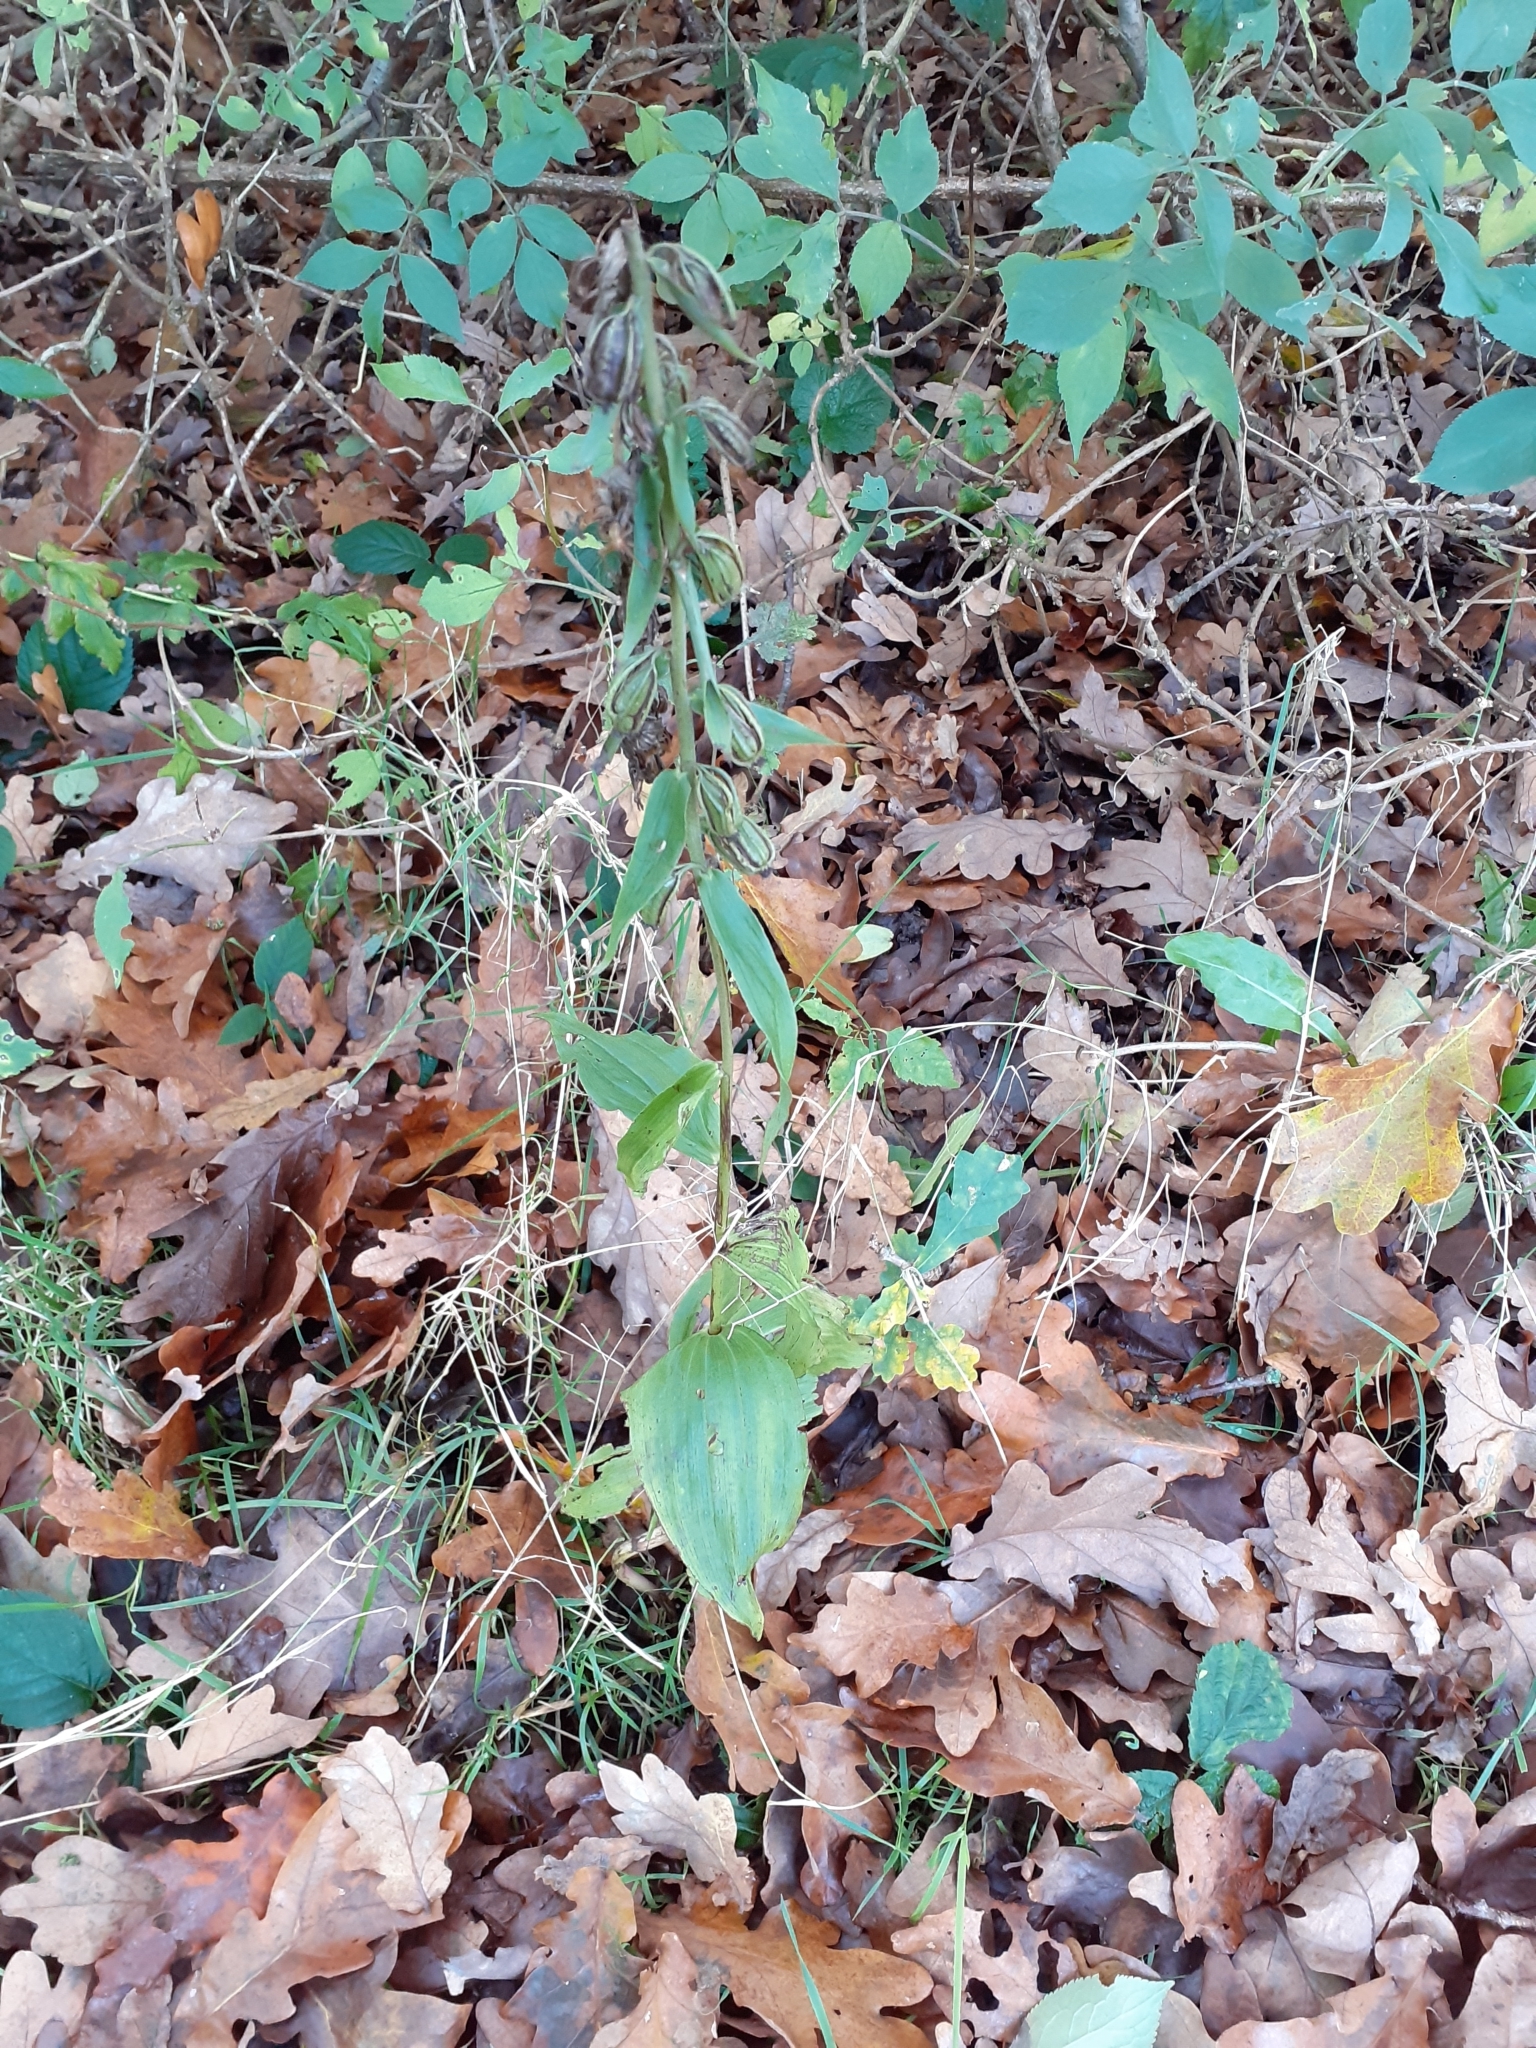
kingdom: Plantae
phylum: Tracheophyta
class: Liliopsida
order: Asparagales
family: Orchidaceae
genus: Epipactis
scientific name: Epipactis helleborine
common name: Broad-leaved helleborine
